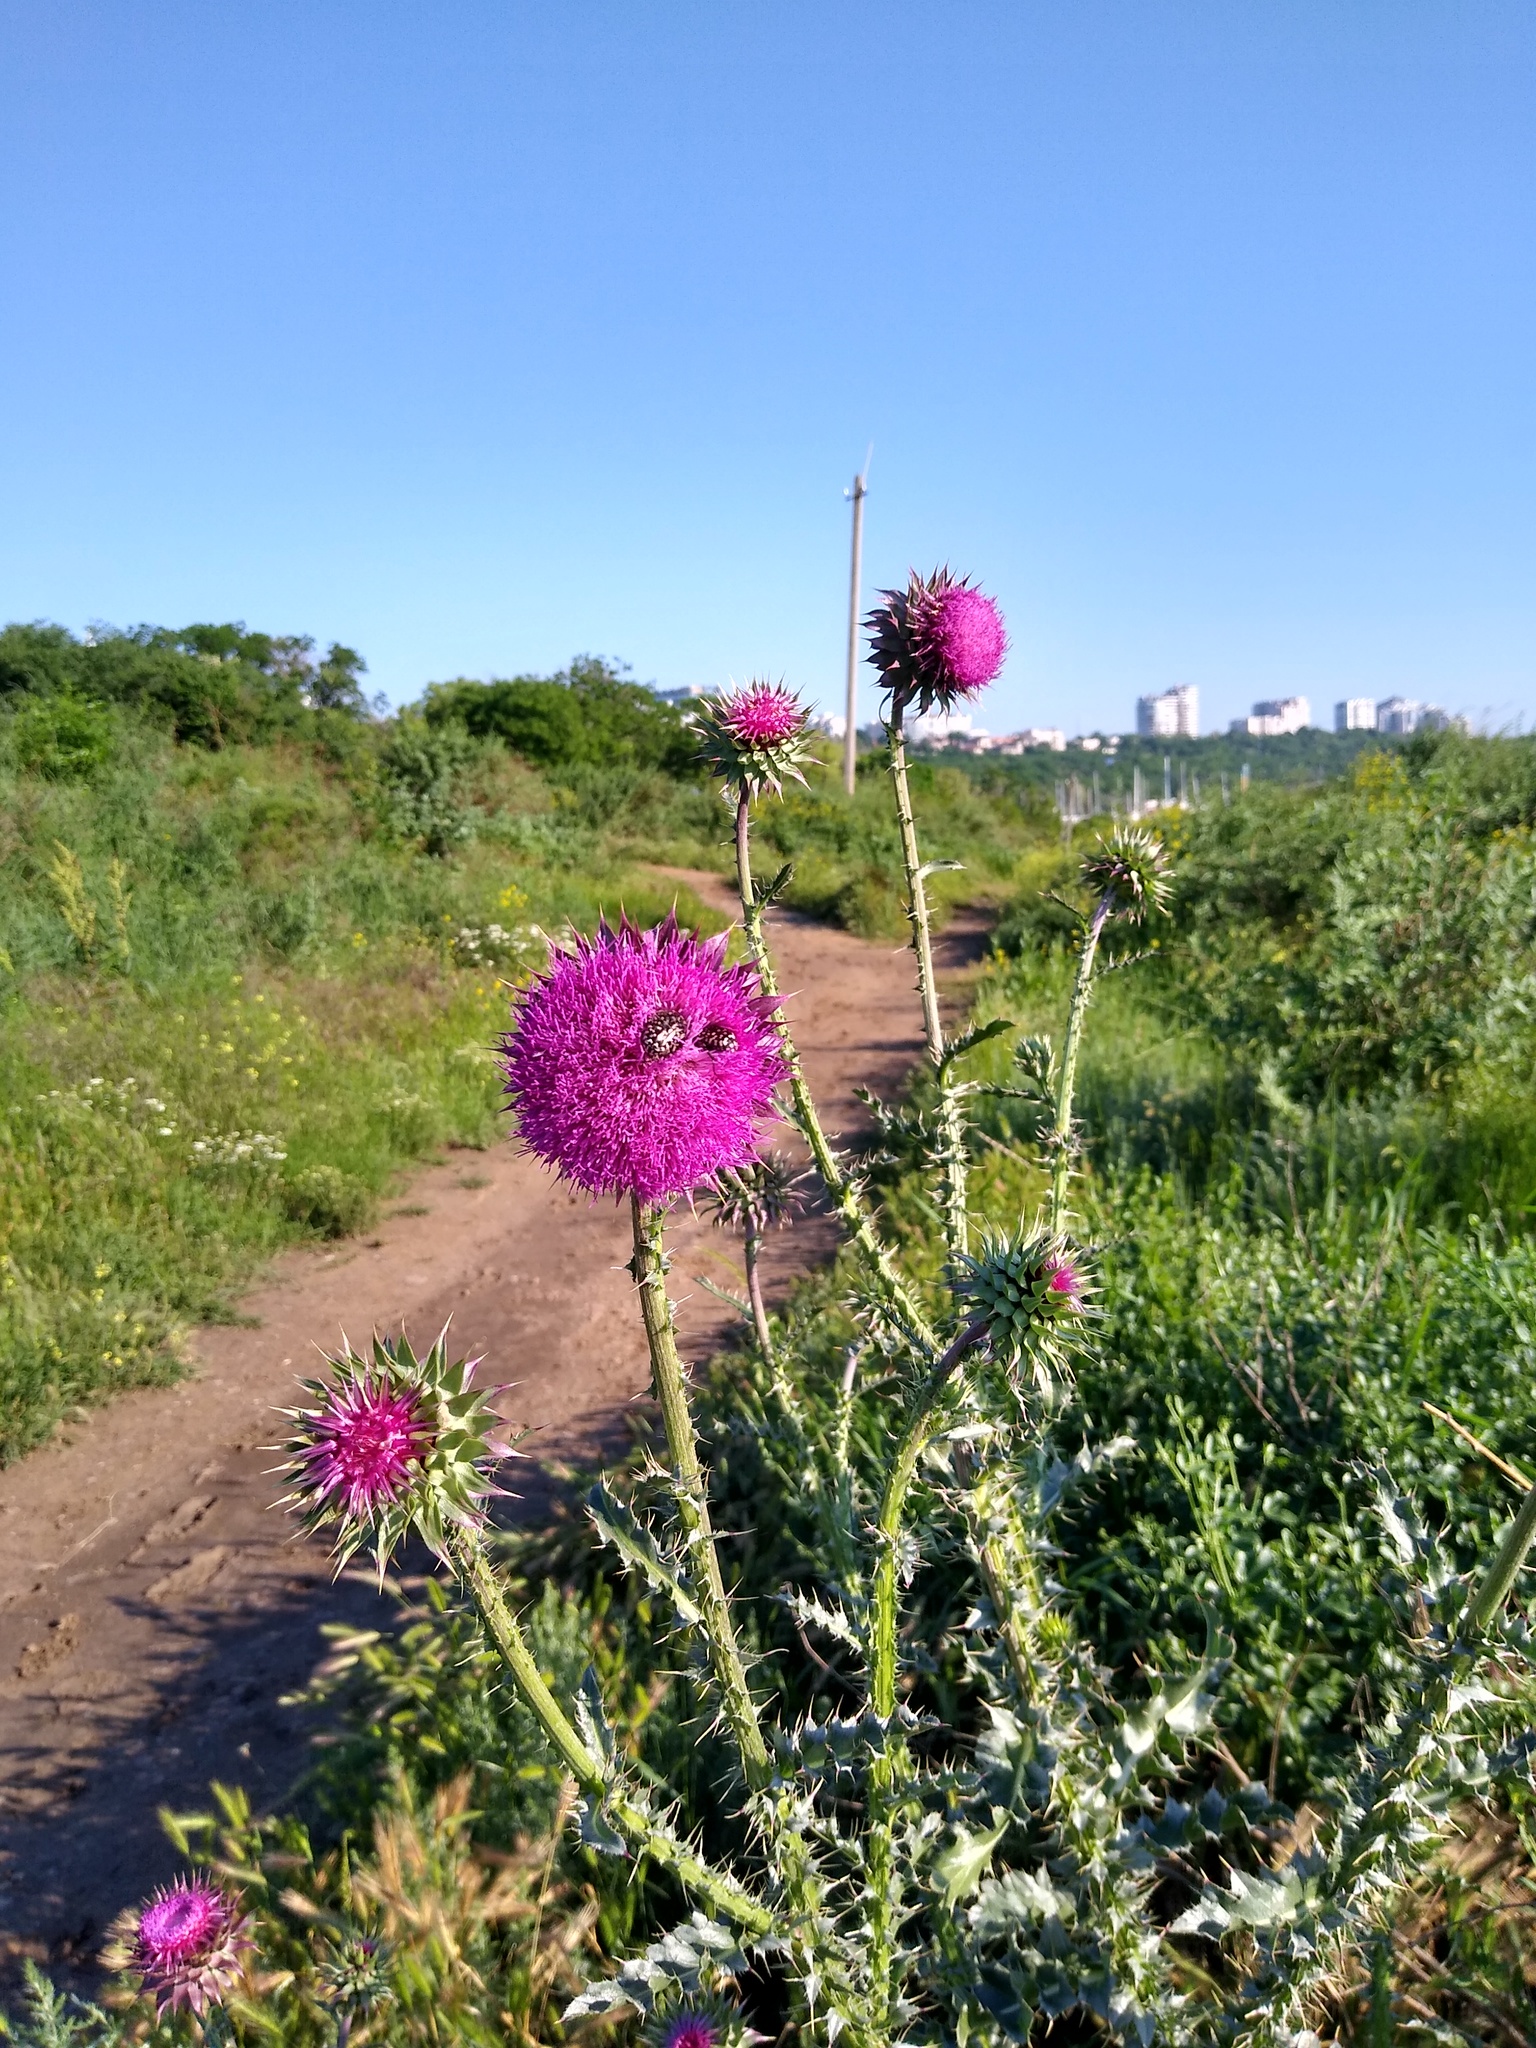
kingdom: Plantae
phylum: Tracheophyta
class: Magnoliopsida
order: Asterales
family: Asteraceae
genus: Carduus
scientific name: Carduus nutans
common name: Musk thistle
